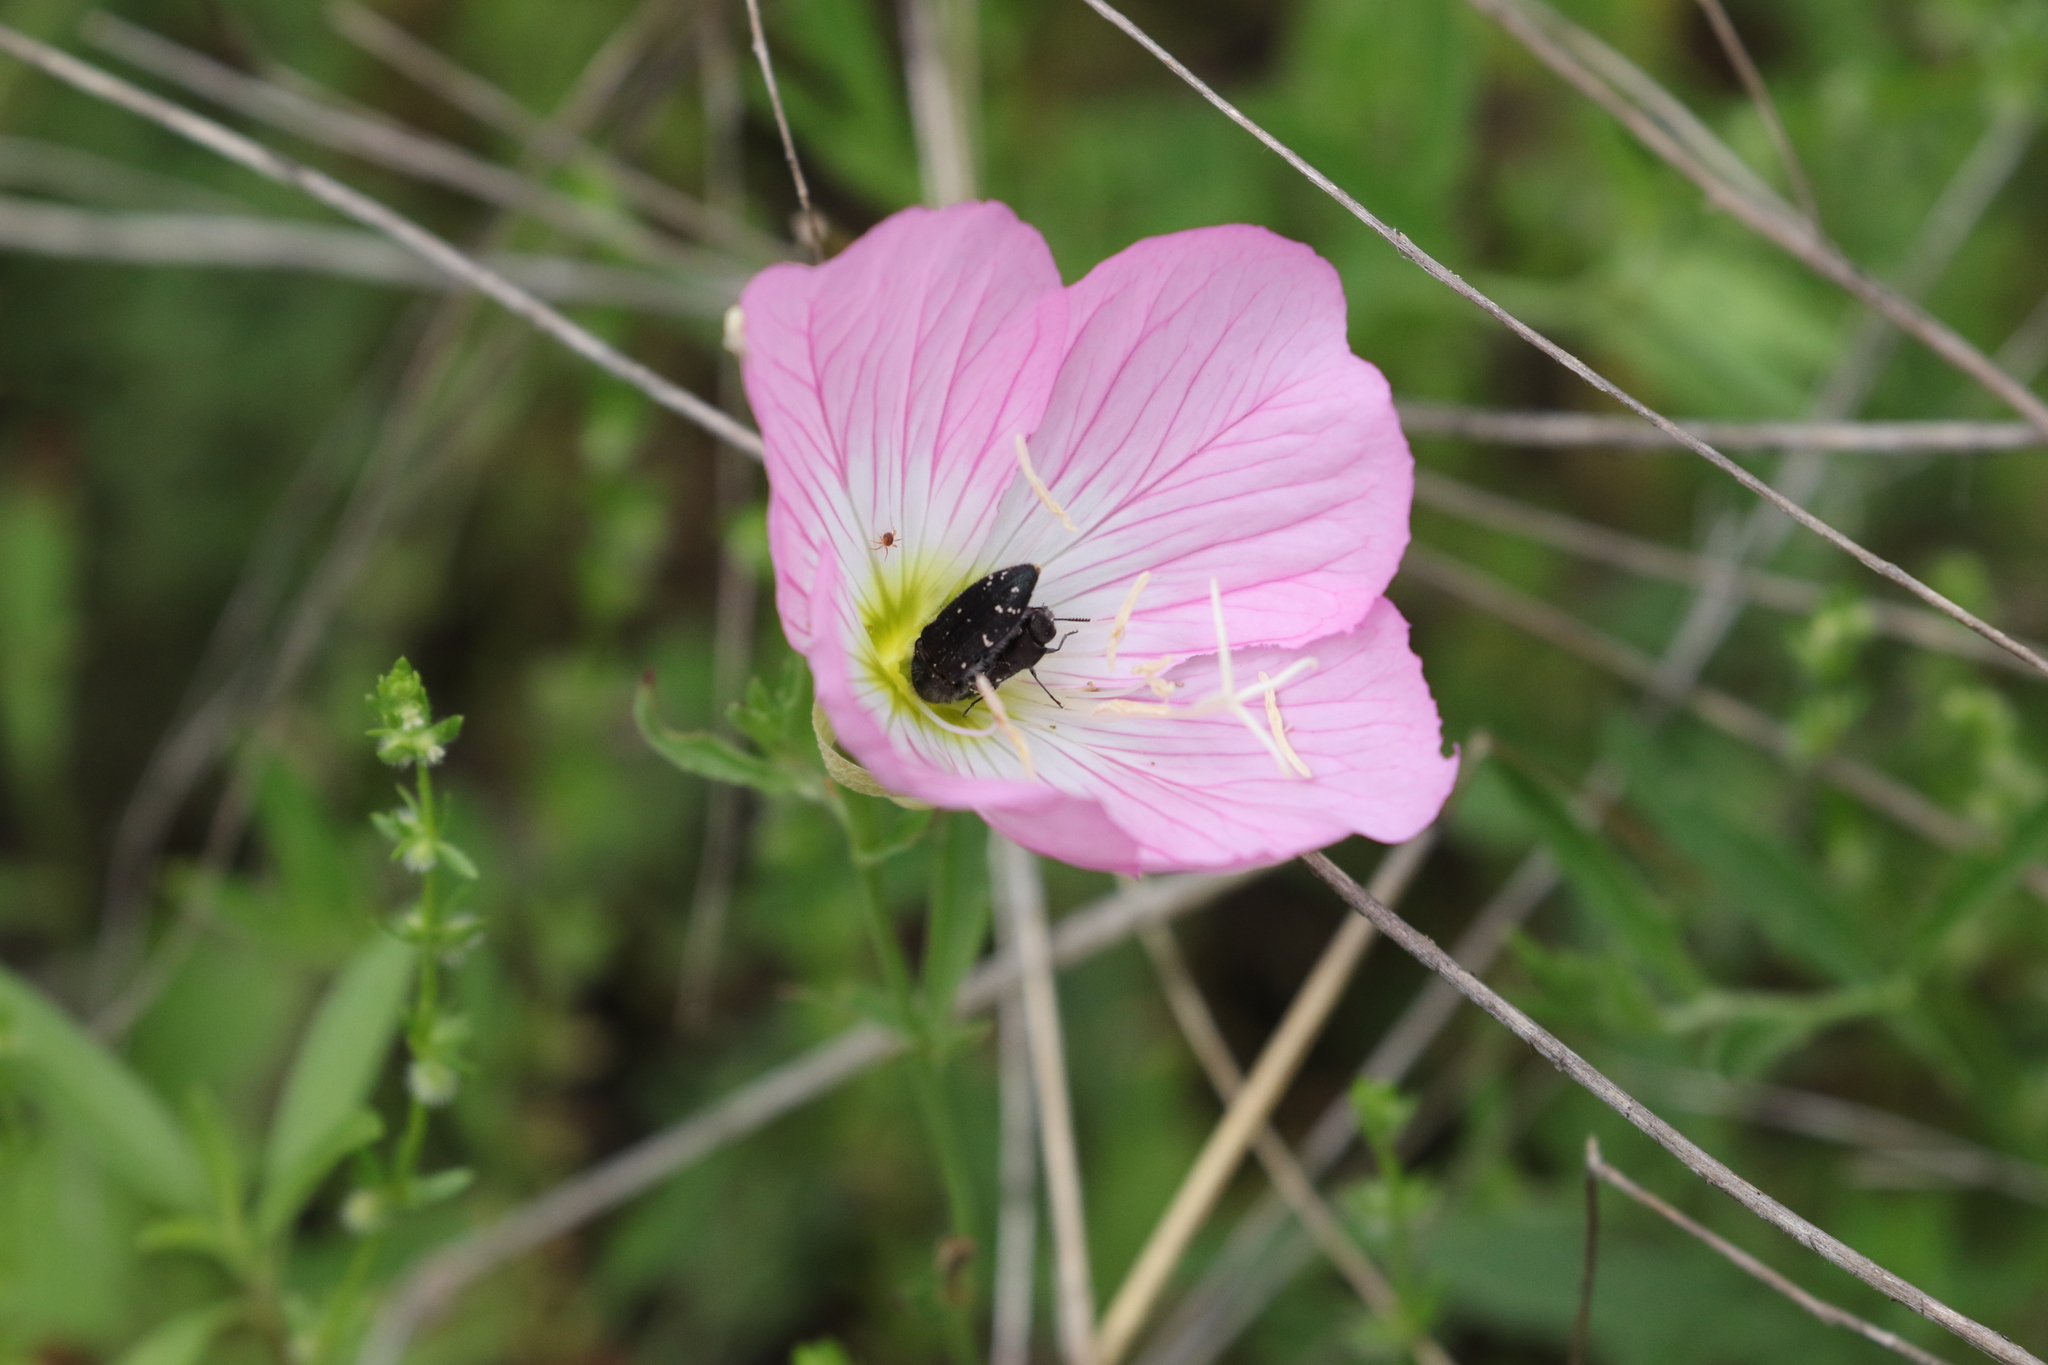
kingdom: Plantae
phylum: Tracheophyta
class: Magnoliopsida
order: Myrtales
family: Onagraceae
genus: Oenothera
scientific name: Oenothera speciosa
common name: White evening-primrose
